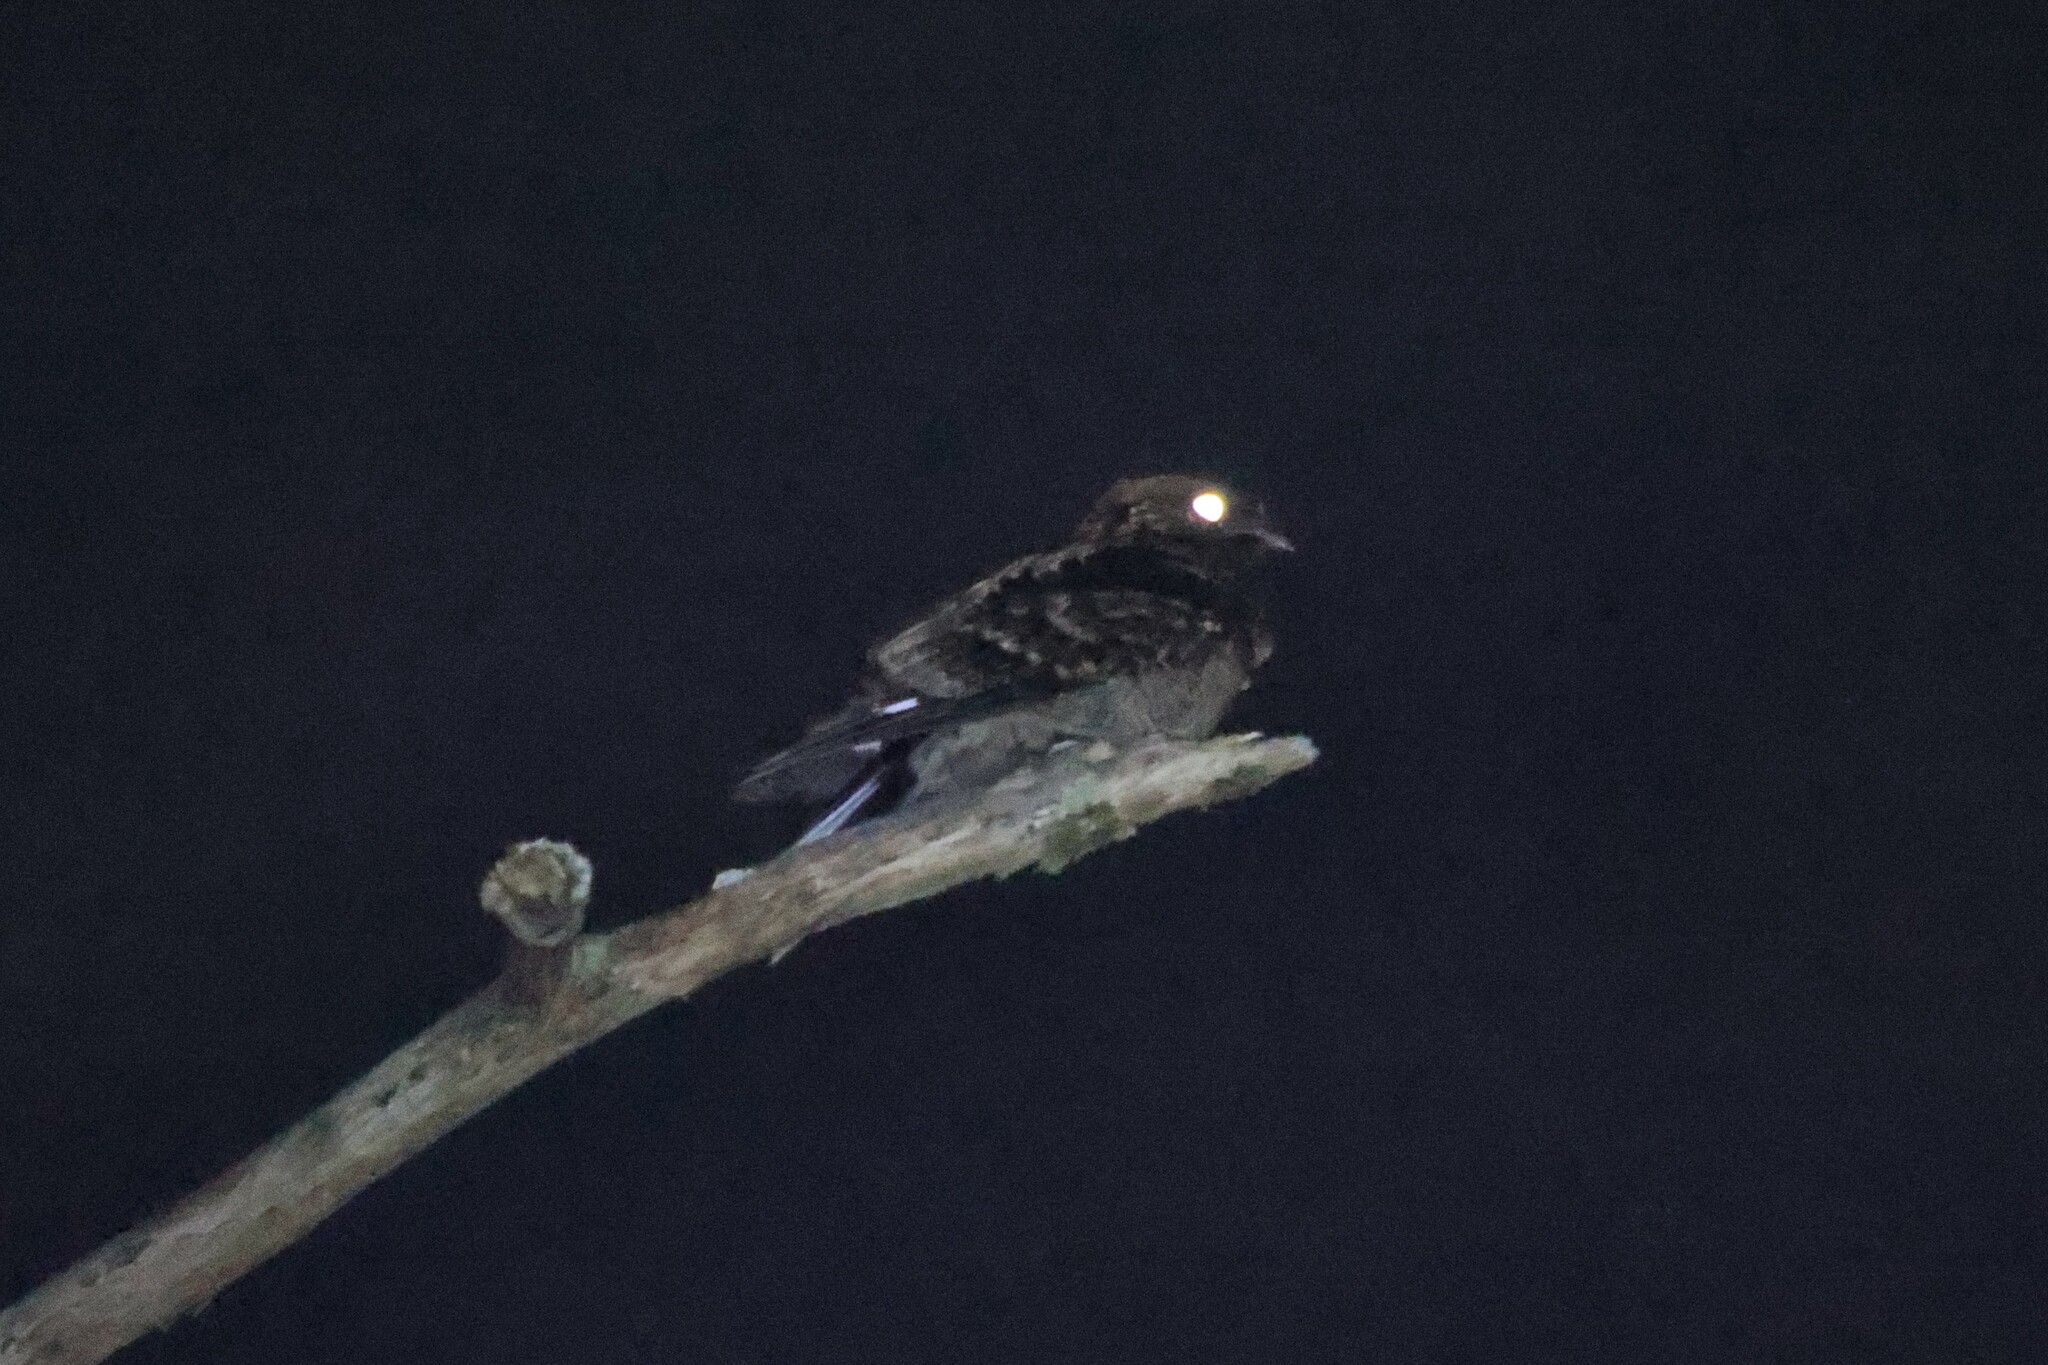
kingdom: Animalia
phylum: Chordata
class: Aves
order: Caprimulgiformes
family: Caprimulgidae
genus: Caprimulgus
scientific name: Caprimulgus pectoralis
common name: Fiery-necked nightjar
